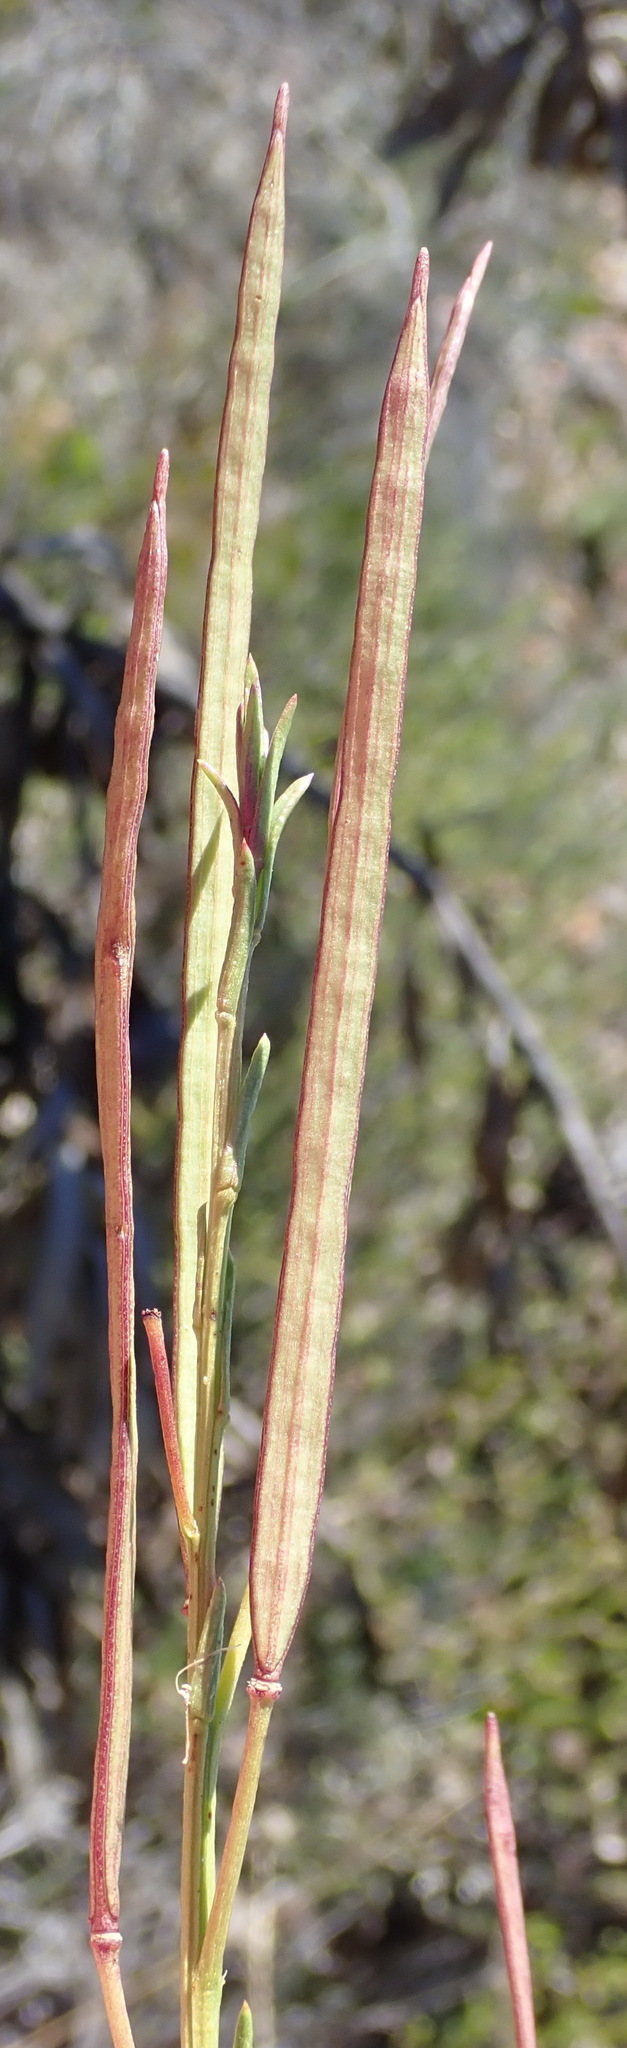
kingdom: Plantae
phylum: Tracheophyta
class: Magnoliopsida
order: Brassicales
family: Brassicaceae
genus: Heliophila
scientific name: Heliophila scoparia
